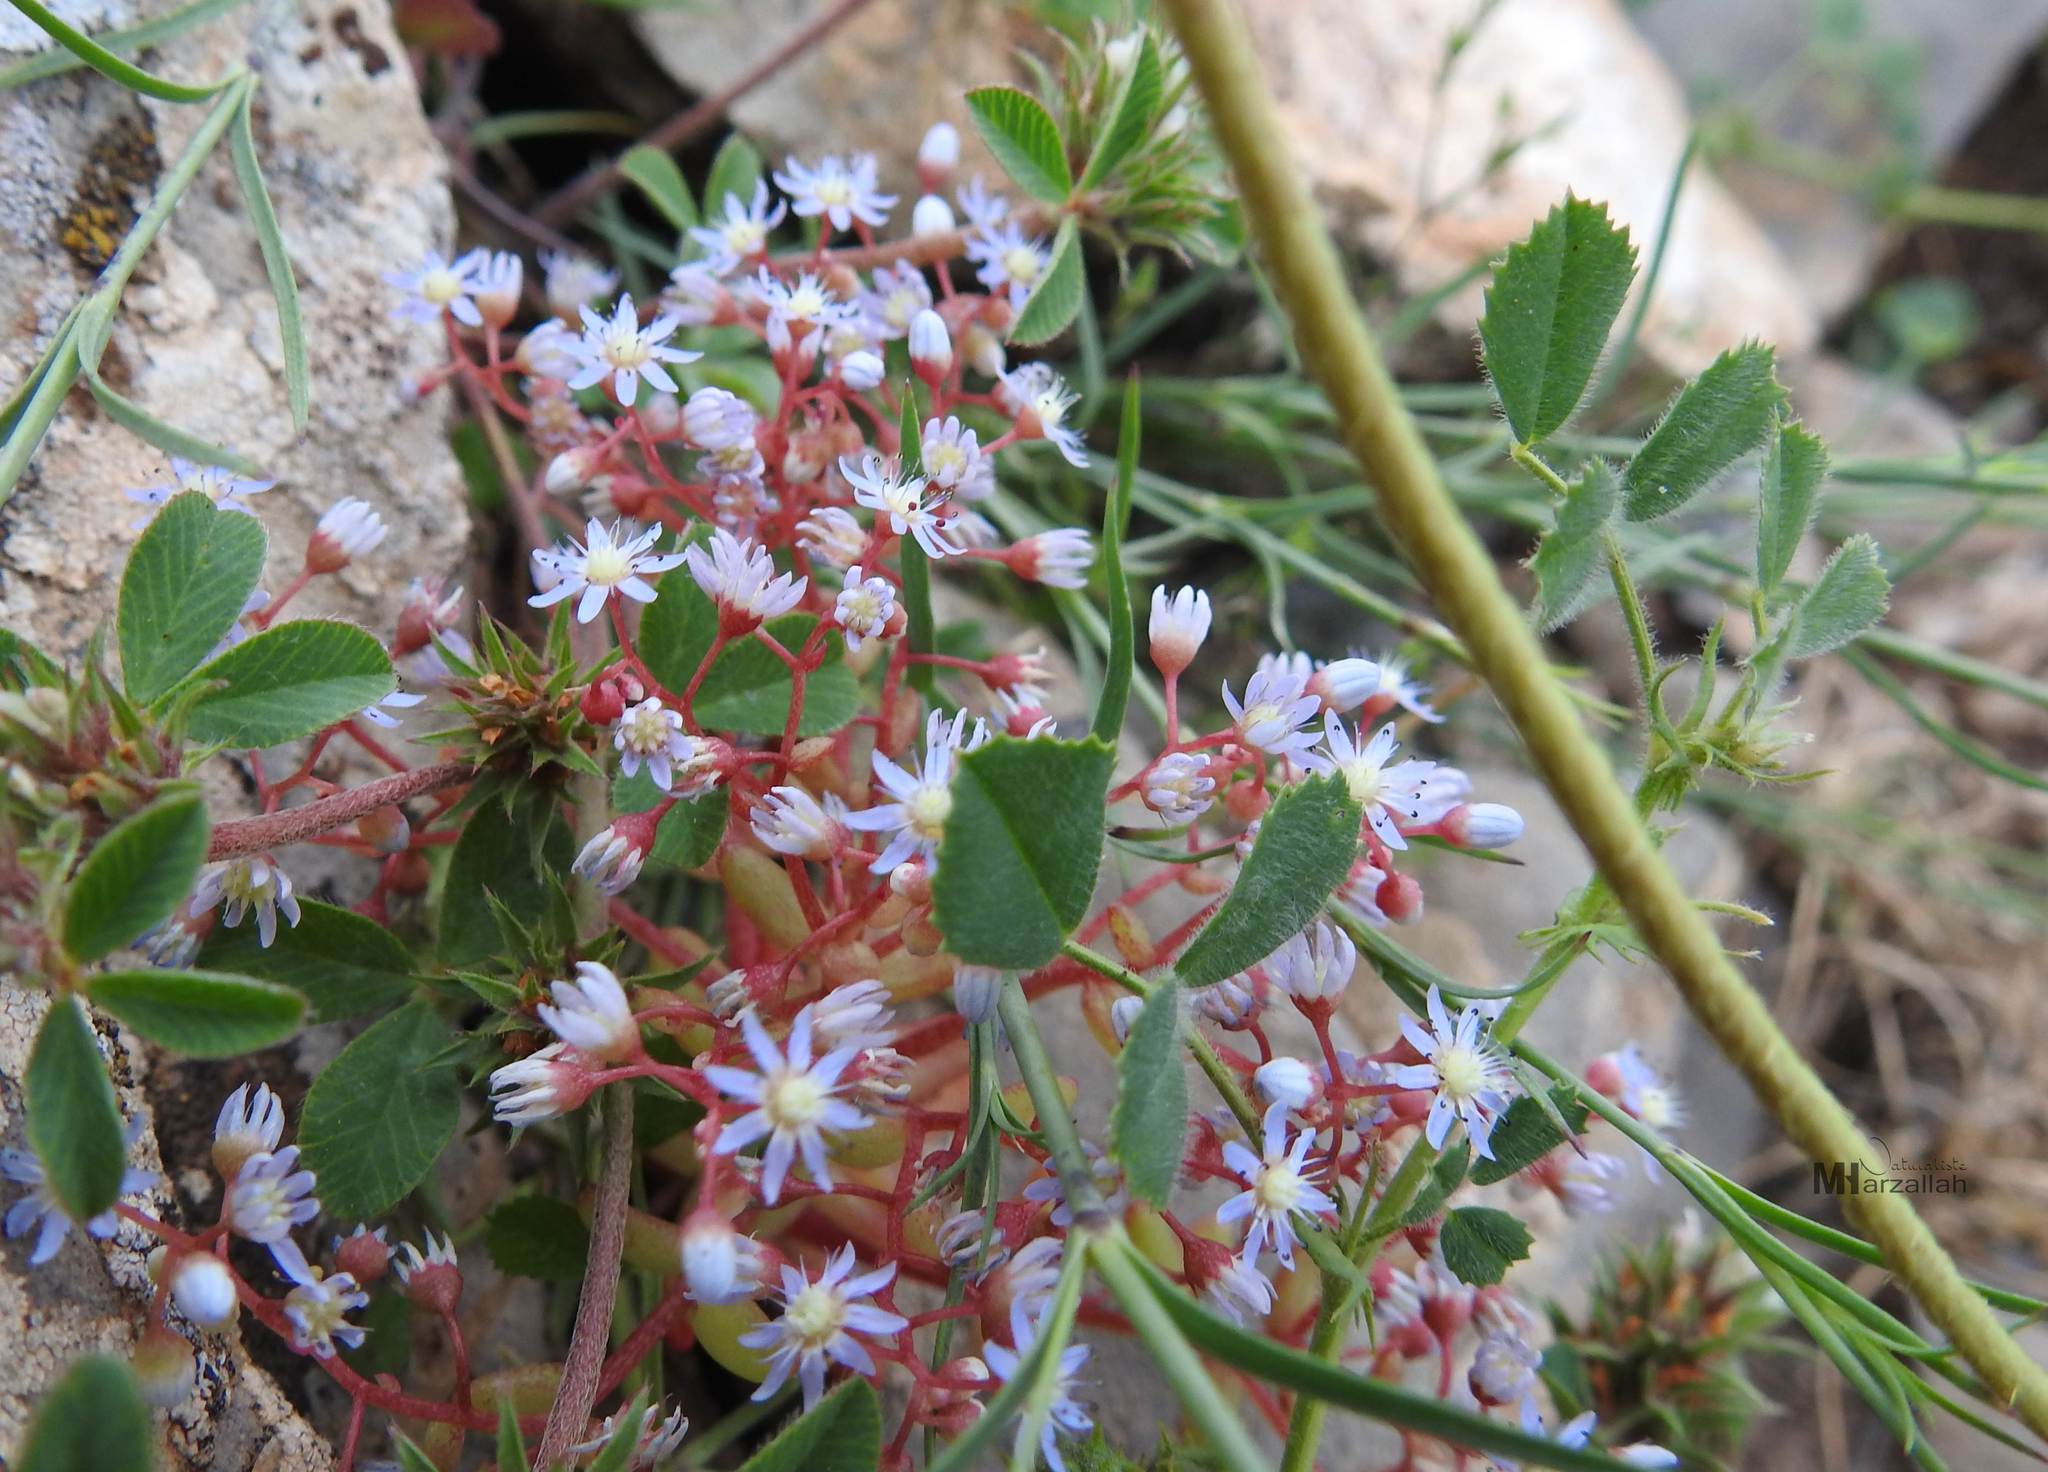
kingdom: Plantae
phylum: Tracheophyta
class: Magnoliopsida
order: Saxifragales
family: Crassulaceae
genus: Sedum
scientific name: Sedum caeruleum
